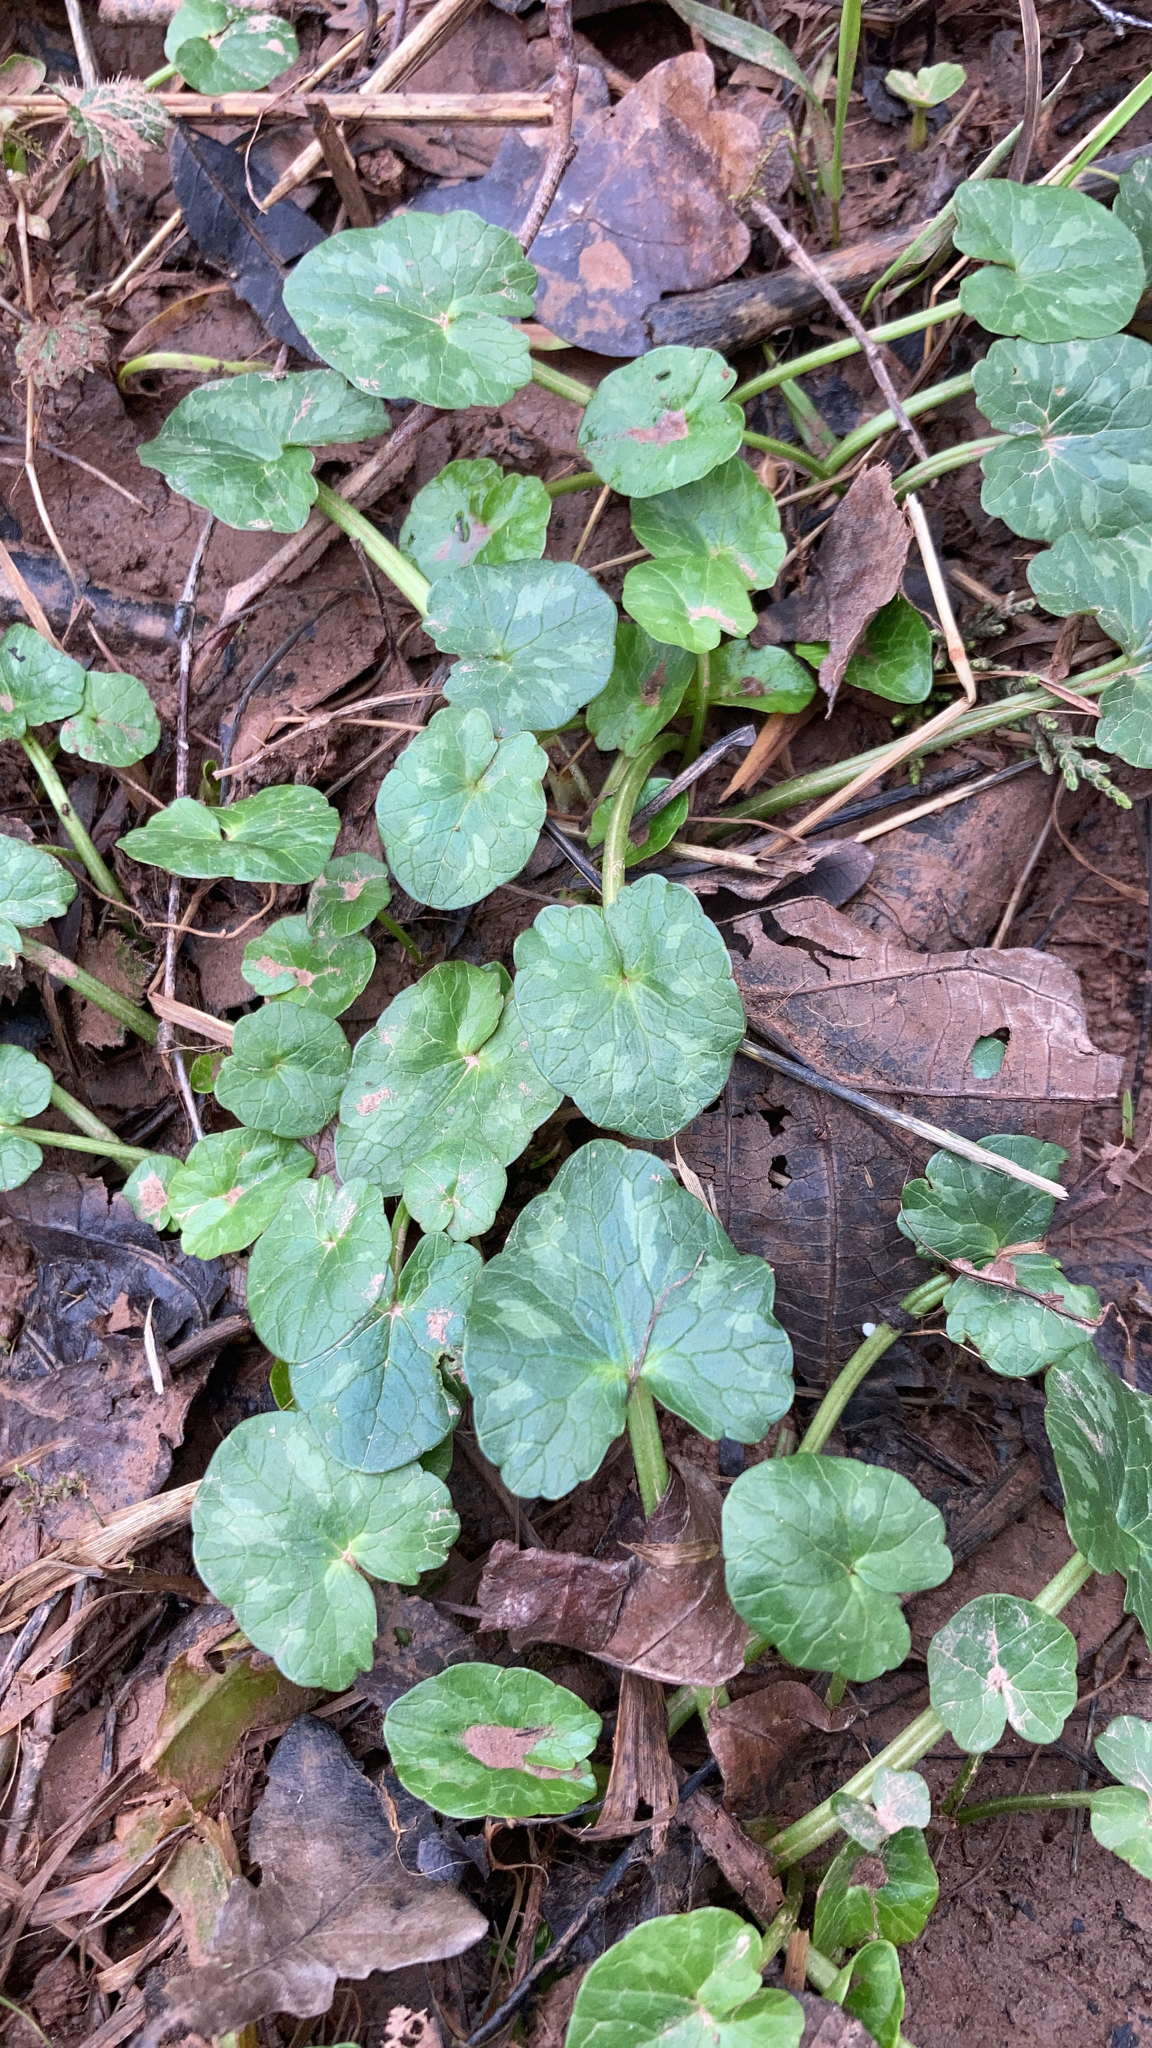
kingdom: Plantae
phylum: Tracheophyta
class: Magnoliopsida
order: Ranunculales
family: Ranunculaceae
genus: Ficaria
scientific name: Ficaria verna
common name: Lesser celandine
